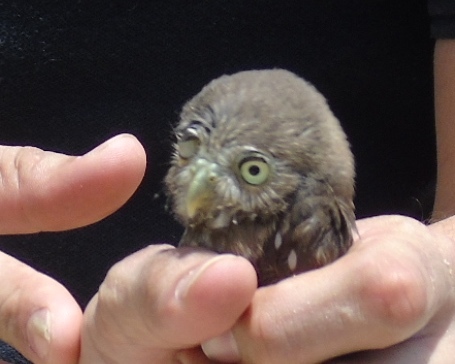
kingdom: Animalia
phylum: Chordata
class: Aves
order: Strigiformes
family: Strigidae
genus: Glaucidium
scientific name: Glaucidium brasilianum
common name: Ferruginous pygmy-owl
